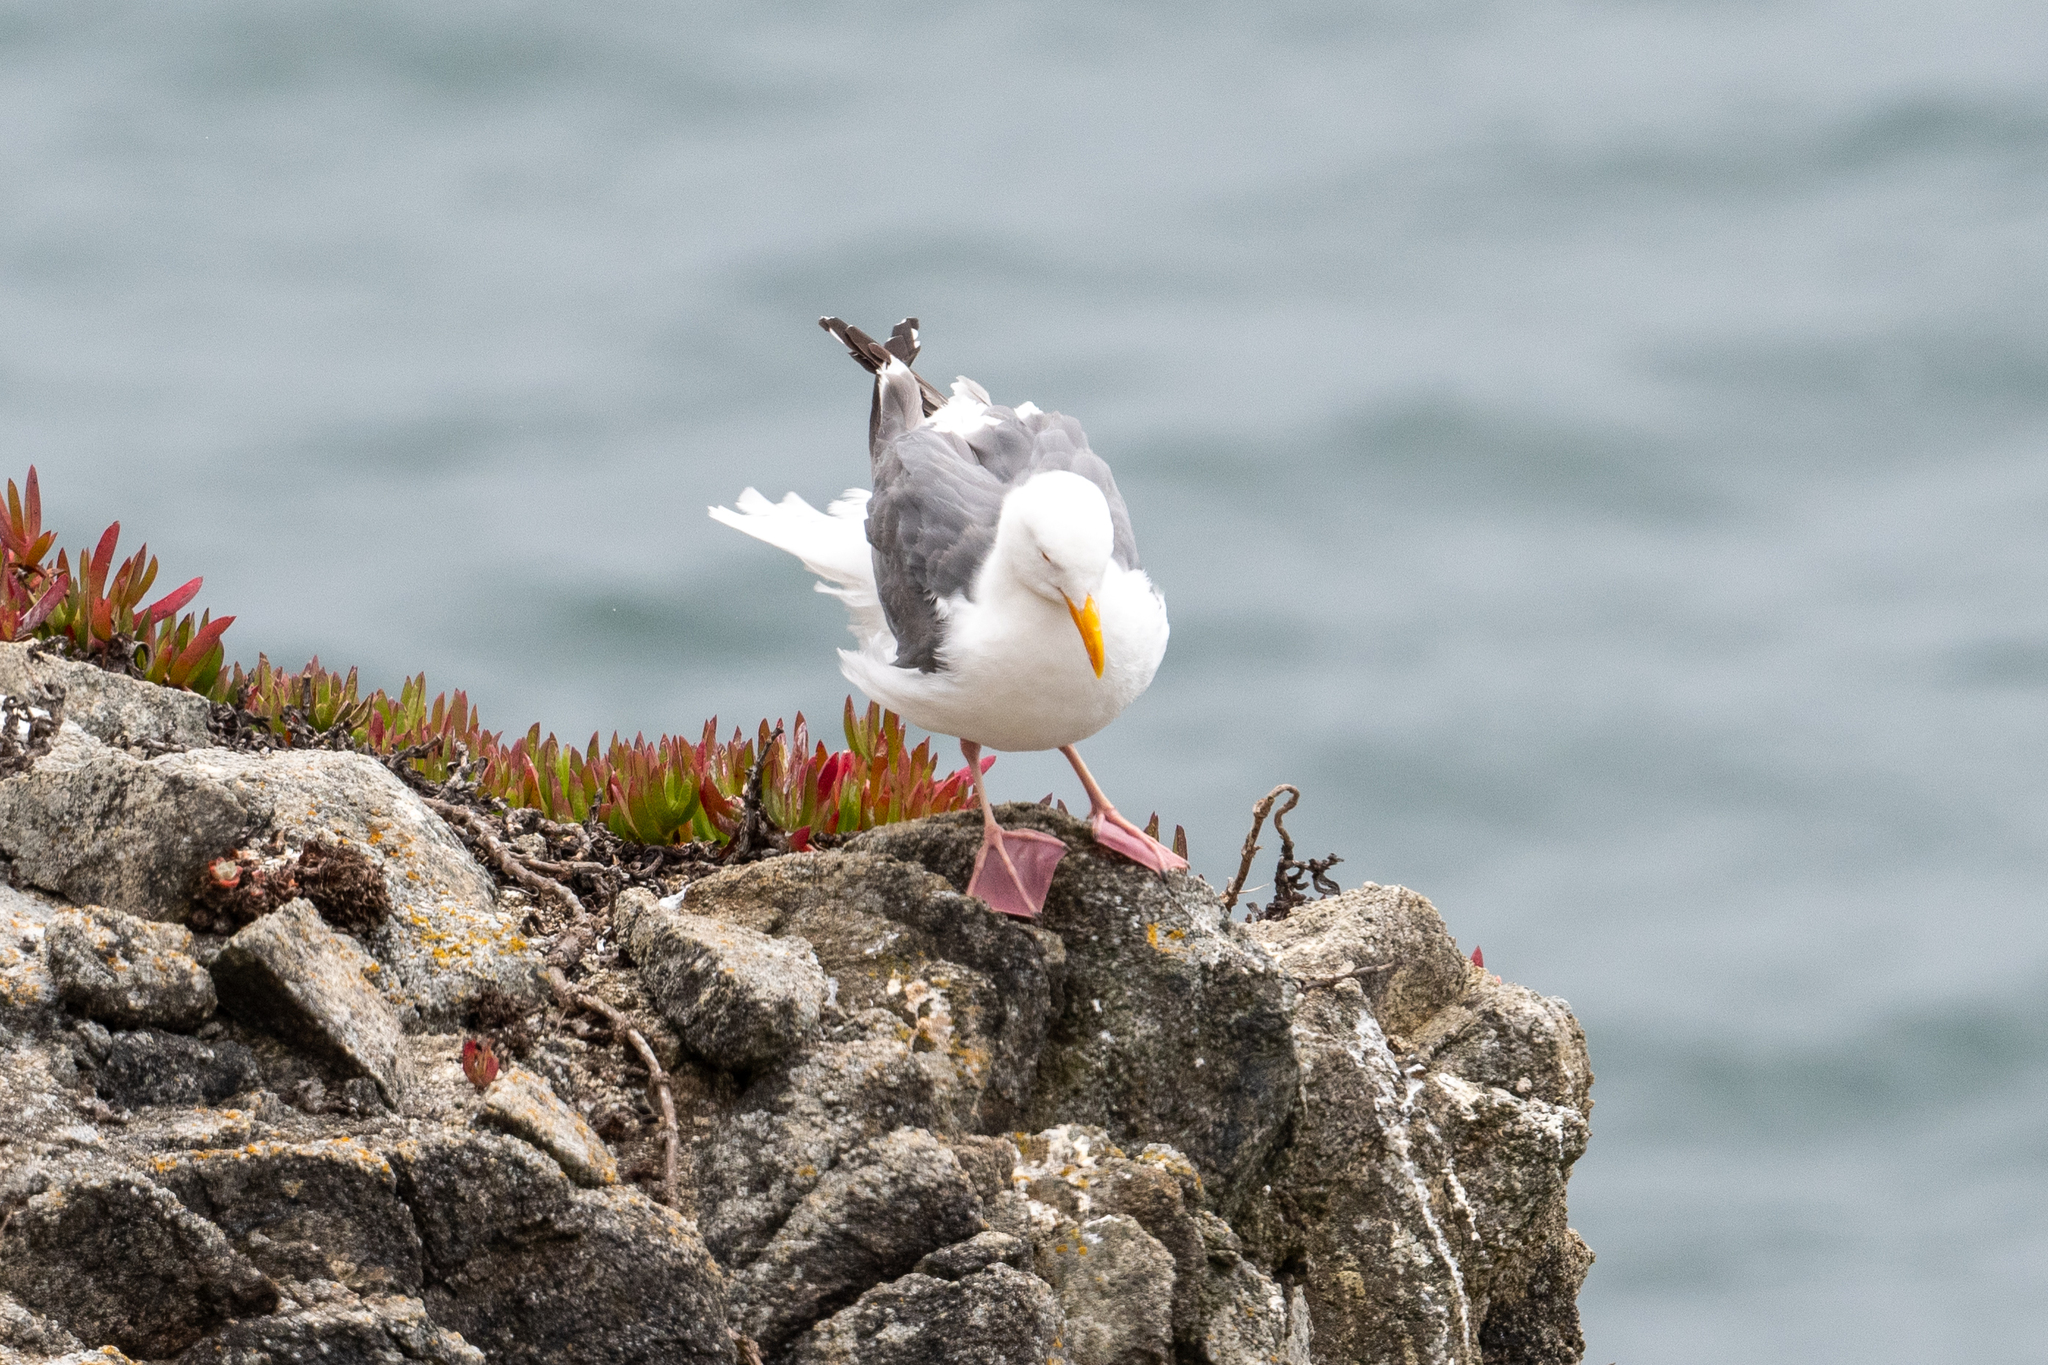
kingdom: Animalia
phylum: Chordata
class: Aves
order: Charadriiformes
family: Laridae
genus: Larus
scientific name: Larus occidentalis
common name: Western gull
